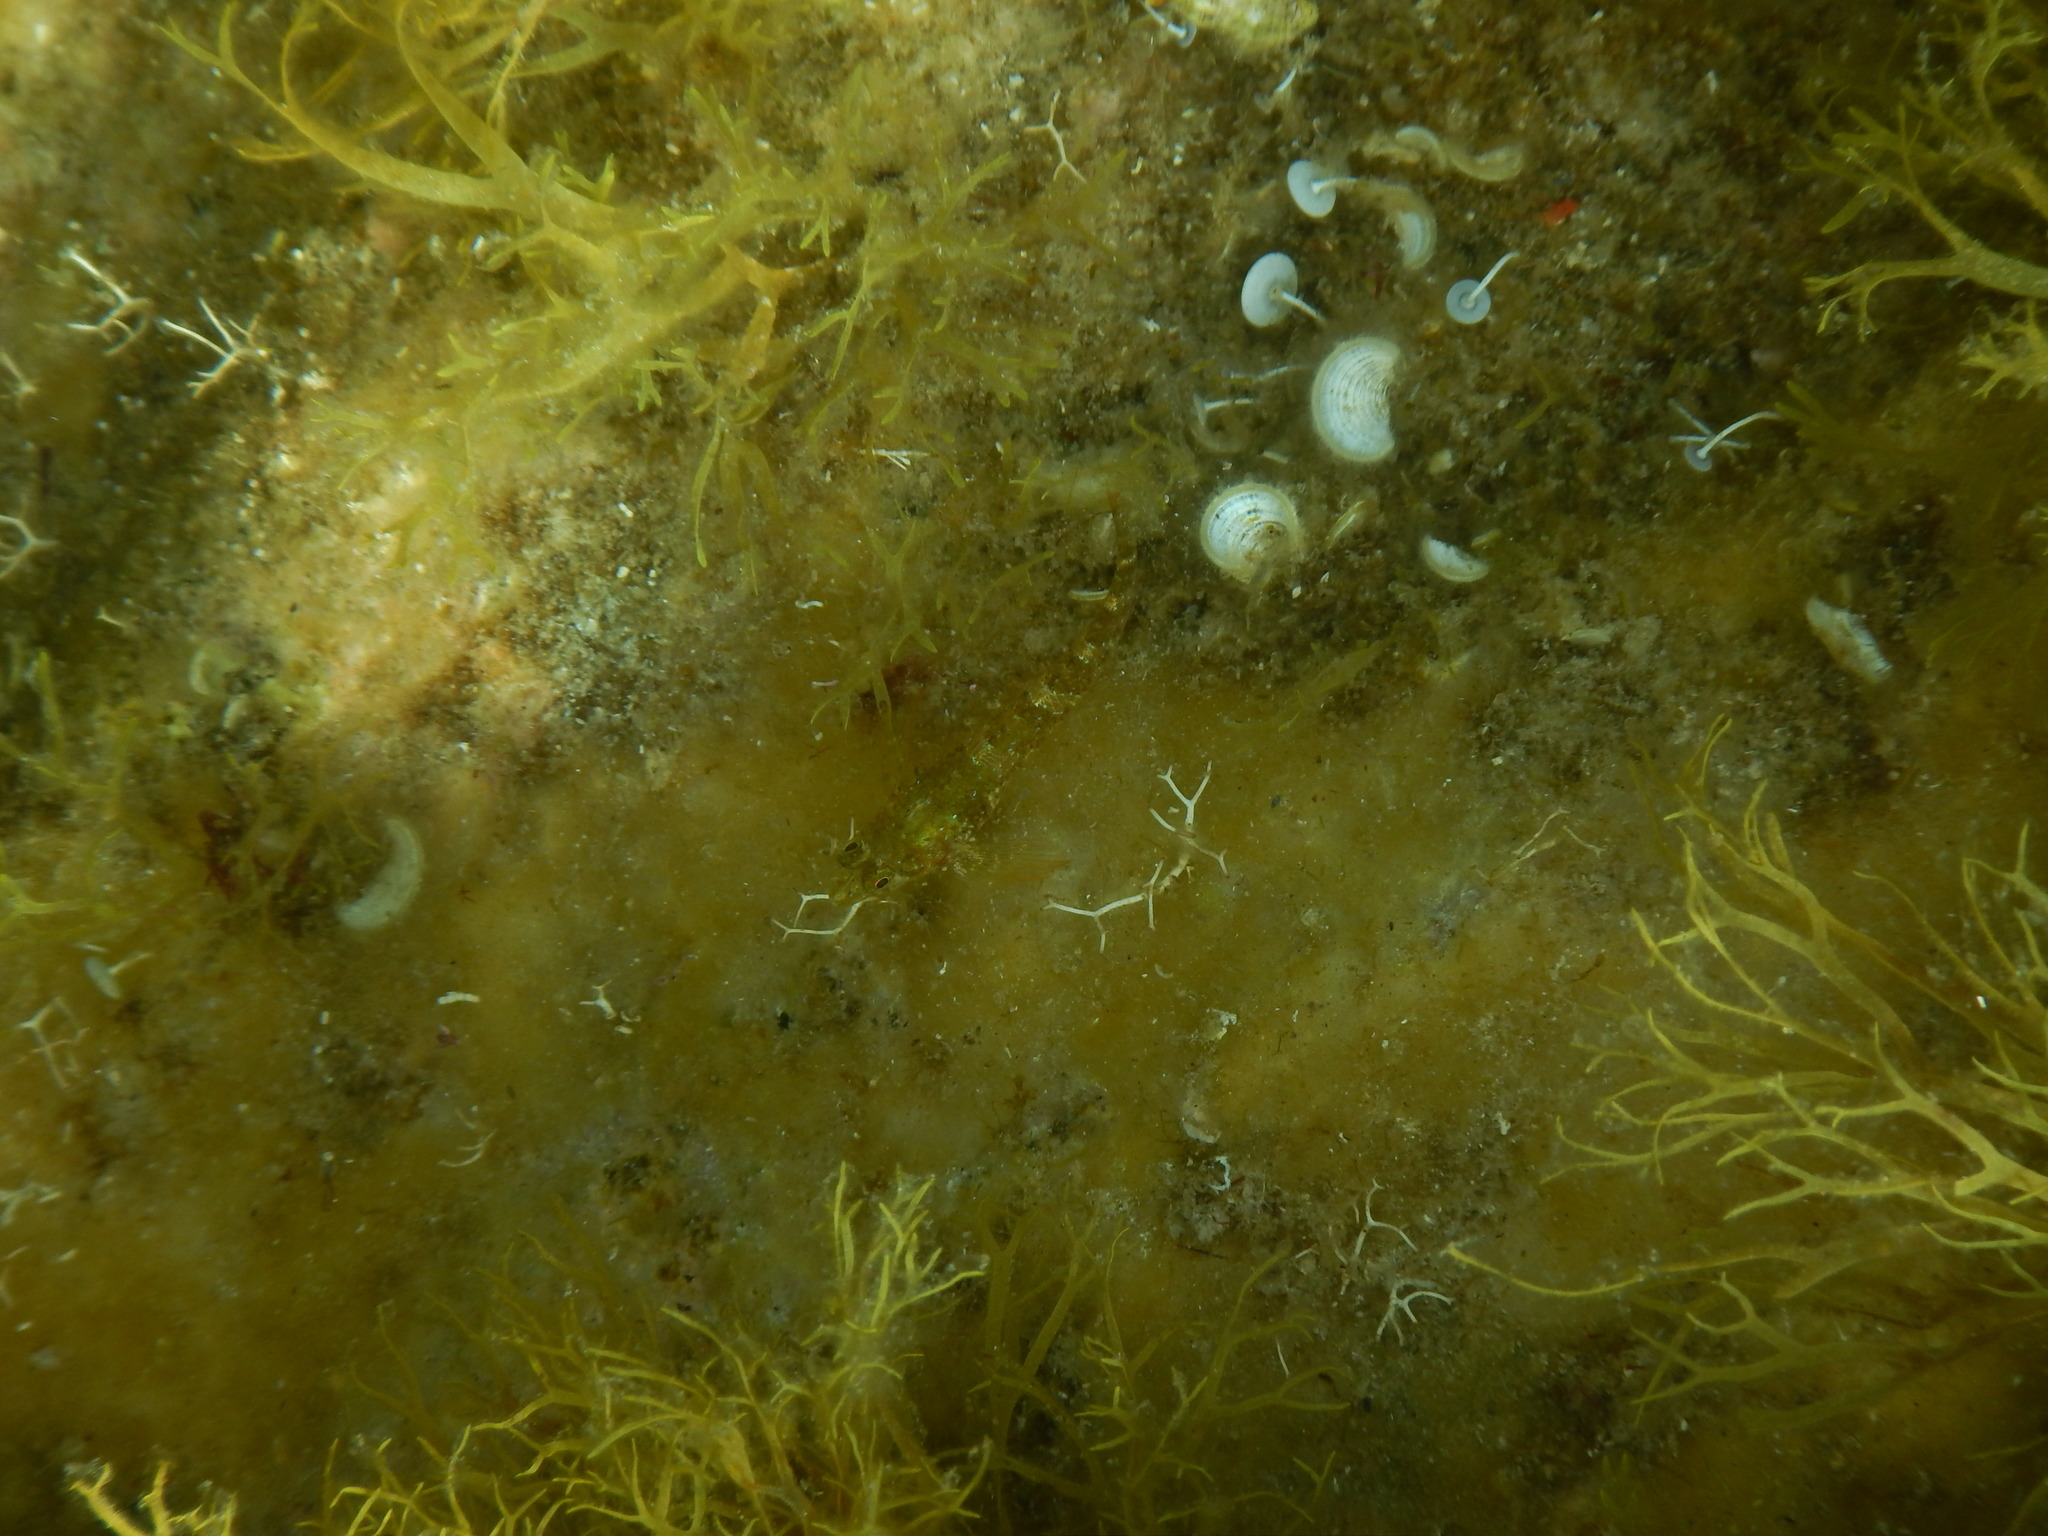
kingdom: Animalia
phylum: Chordata
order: Perciformes
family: Tripterygiidae
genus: Tripterygion
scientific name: Tripterygion tripteronotum
